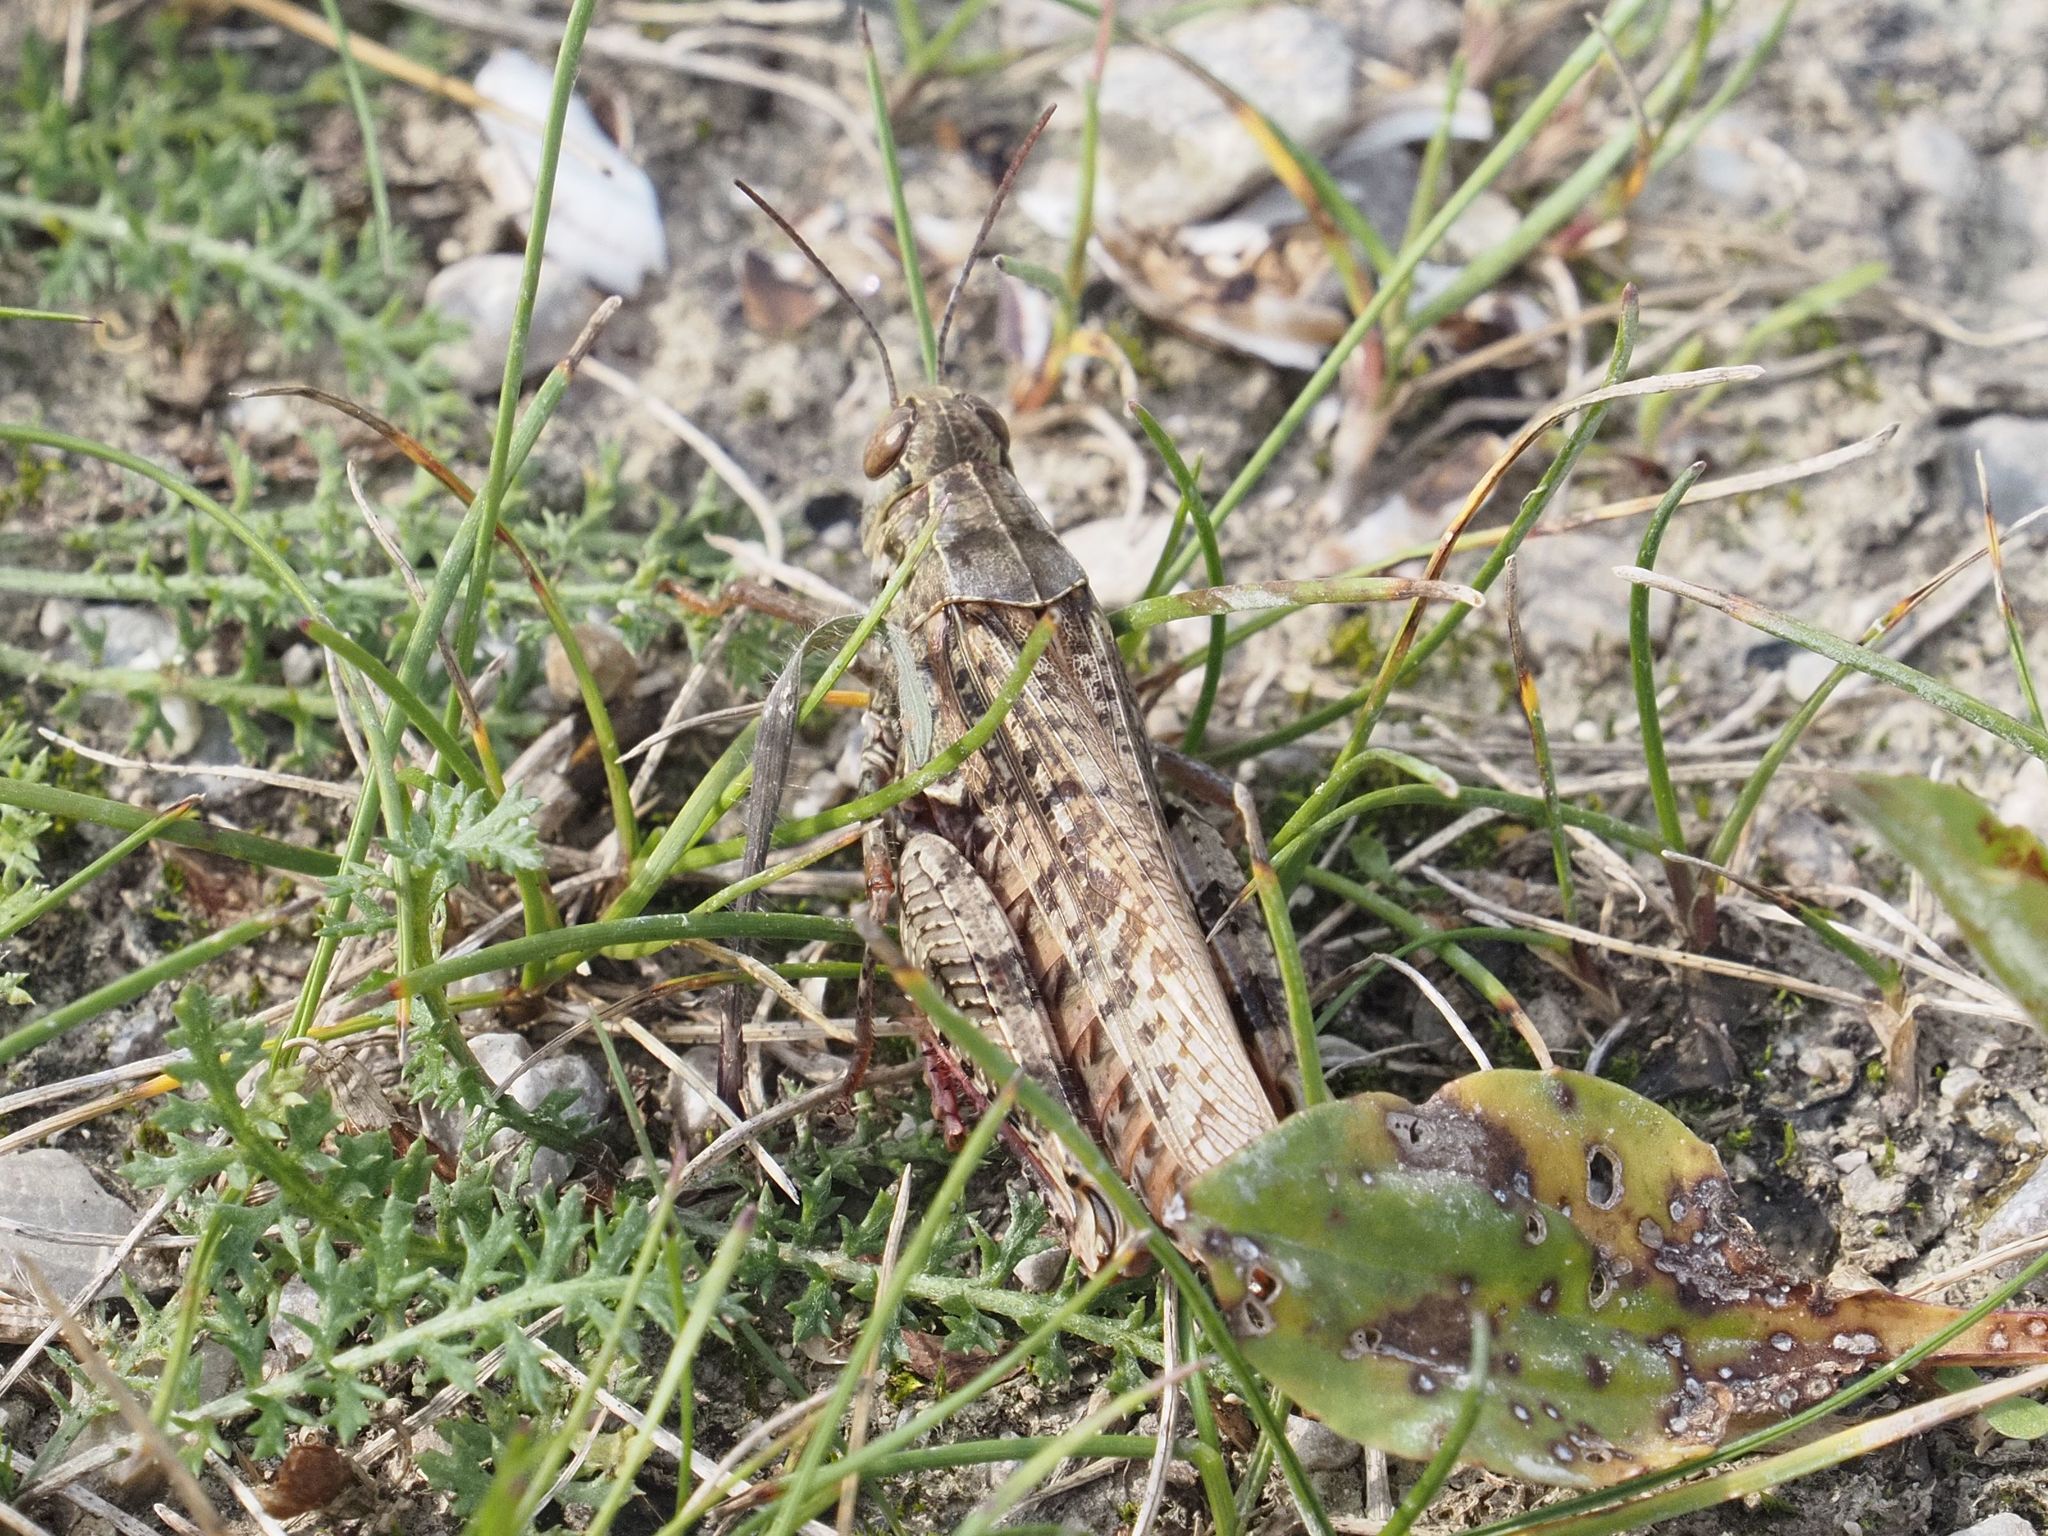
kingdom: Animalia
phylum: Arthropoda
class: Insecta
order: Orthoptera
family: Acrididae
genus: Calliptamus
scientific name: Calliptamus italicus
